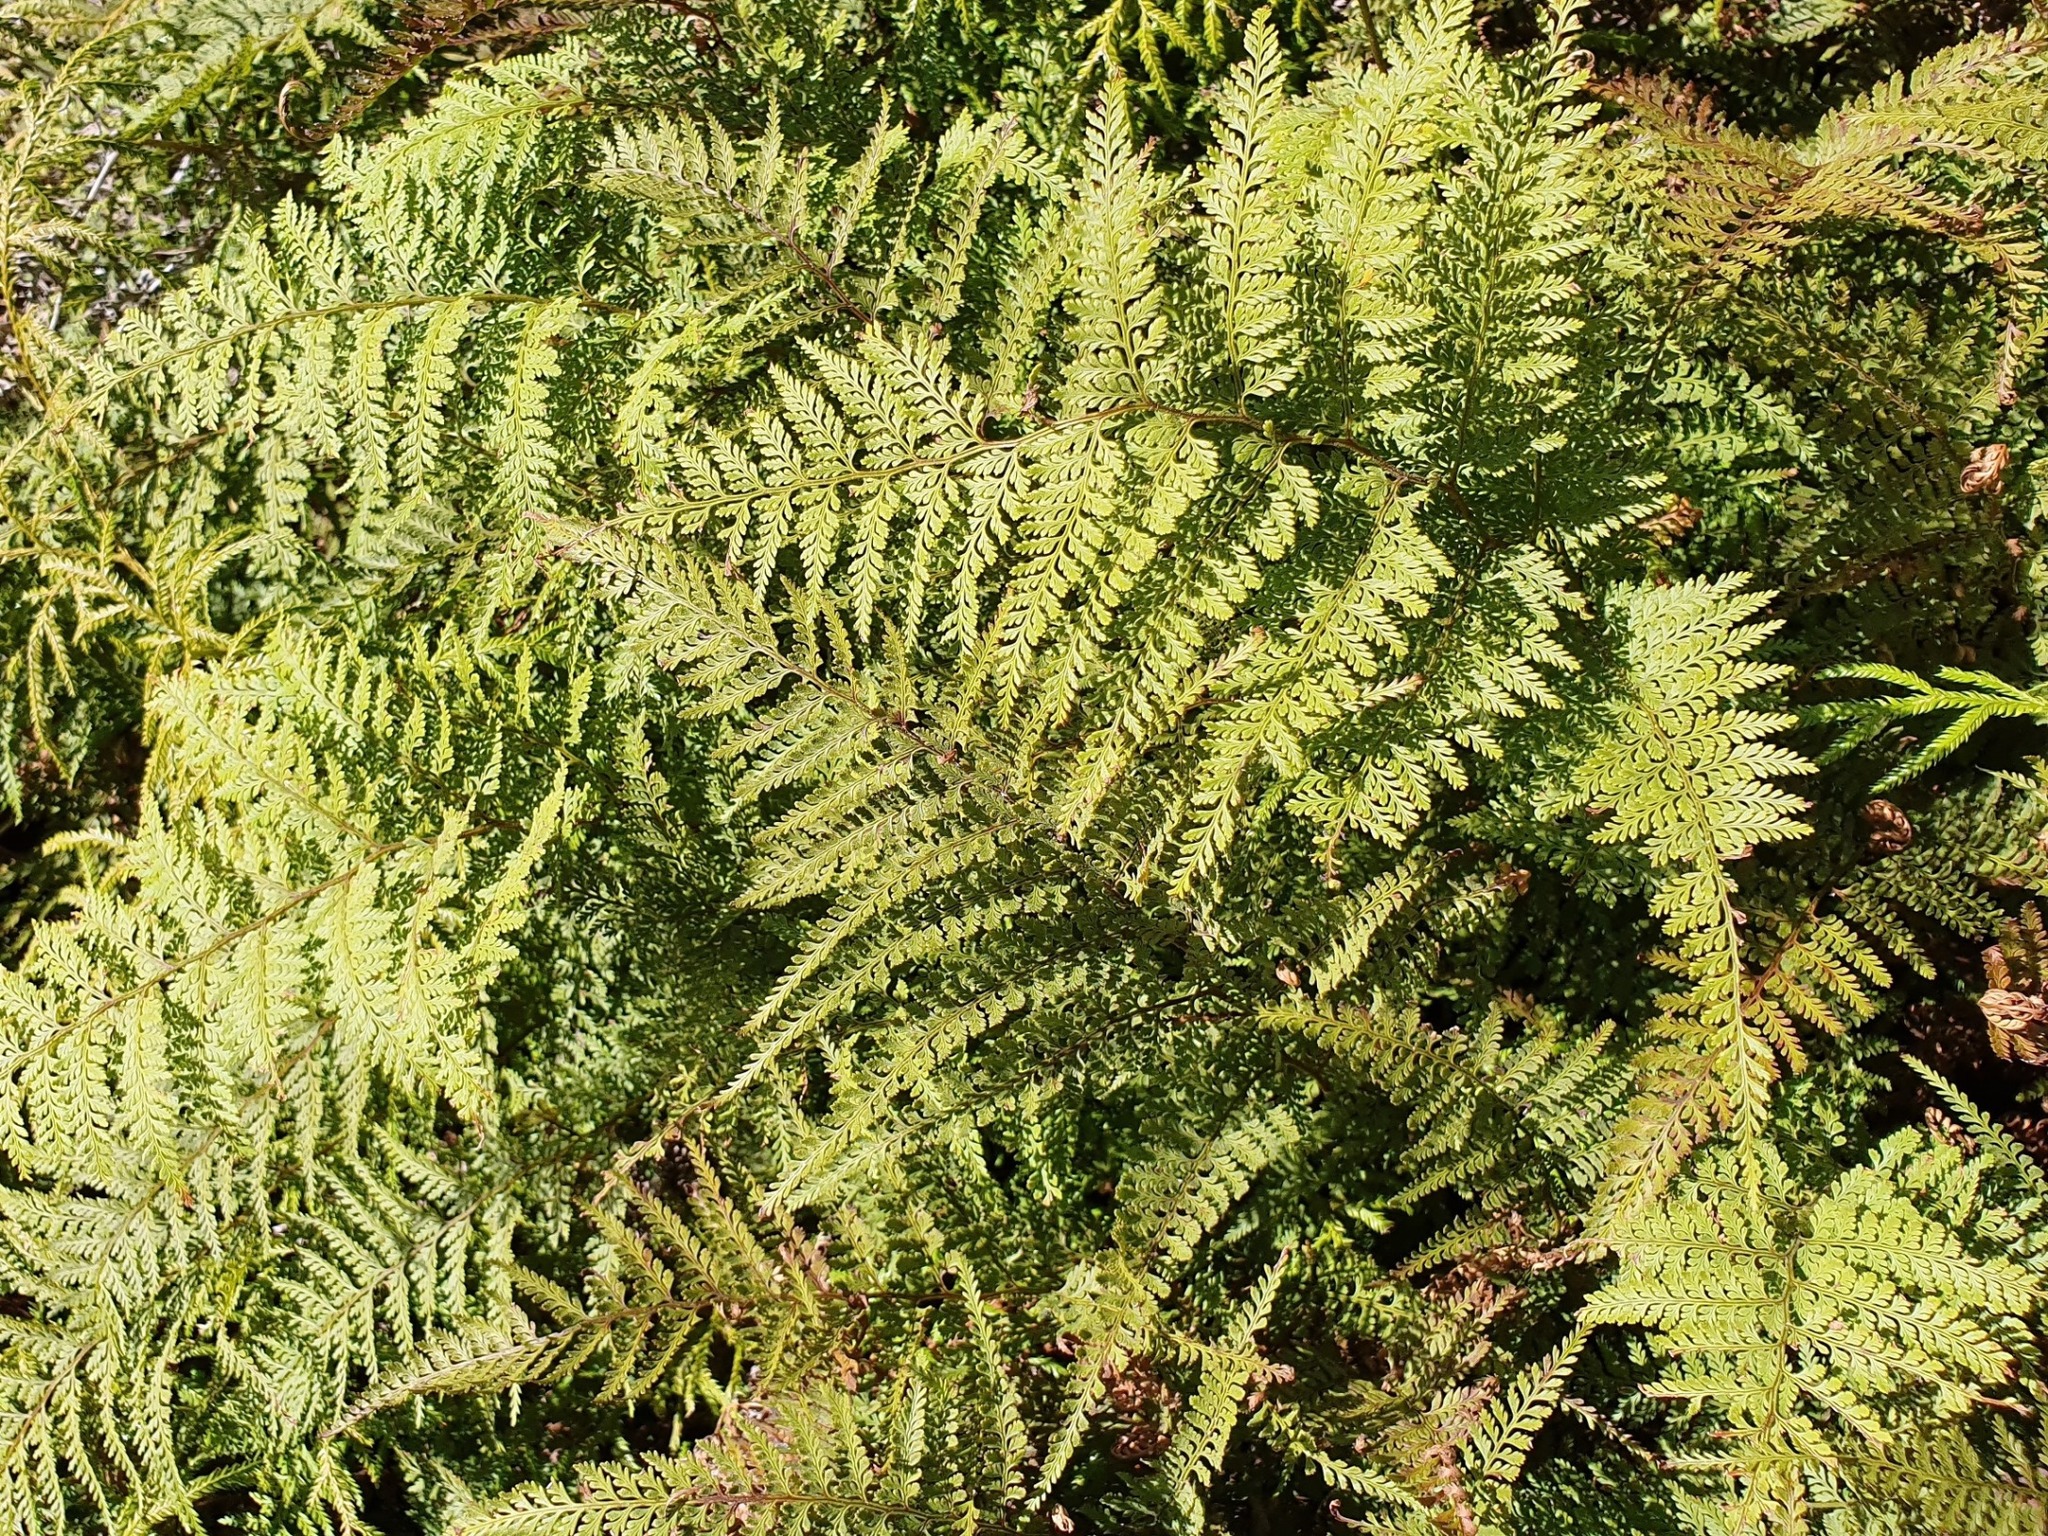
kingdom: Plantae
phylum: Tracheophyta
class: Polypodiopsida
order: Polypodiales
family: Dennstaedtiaceae
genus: Paesia
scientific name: Paesia scaberula
